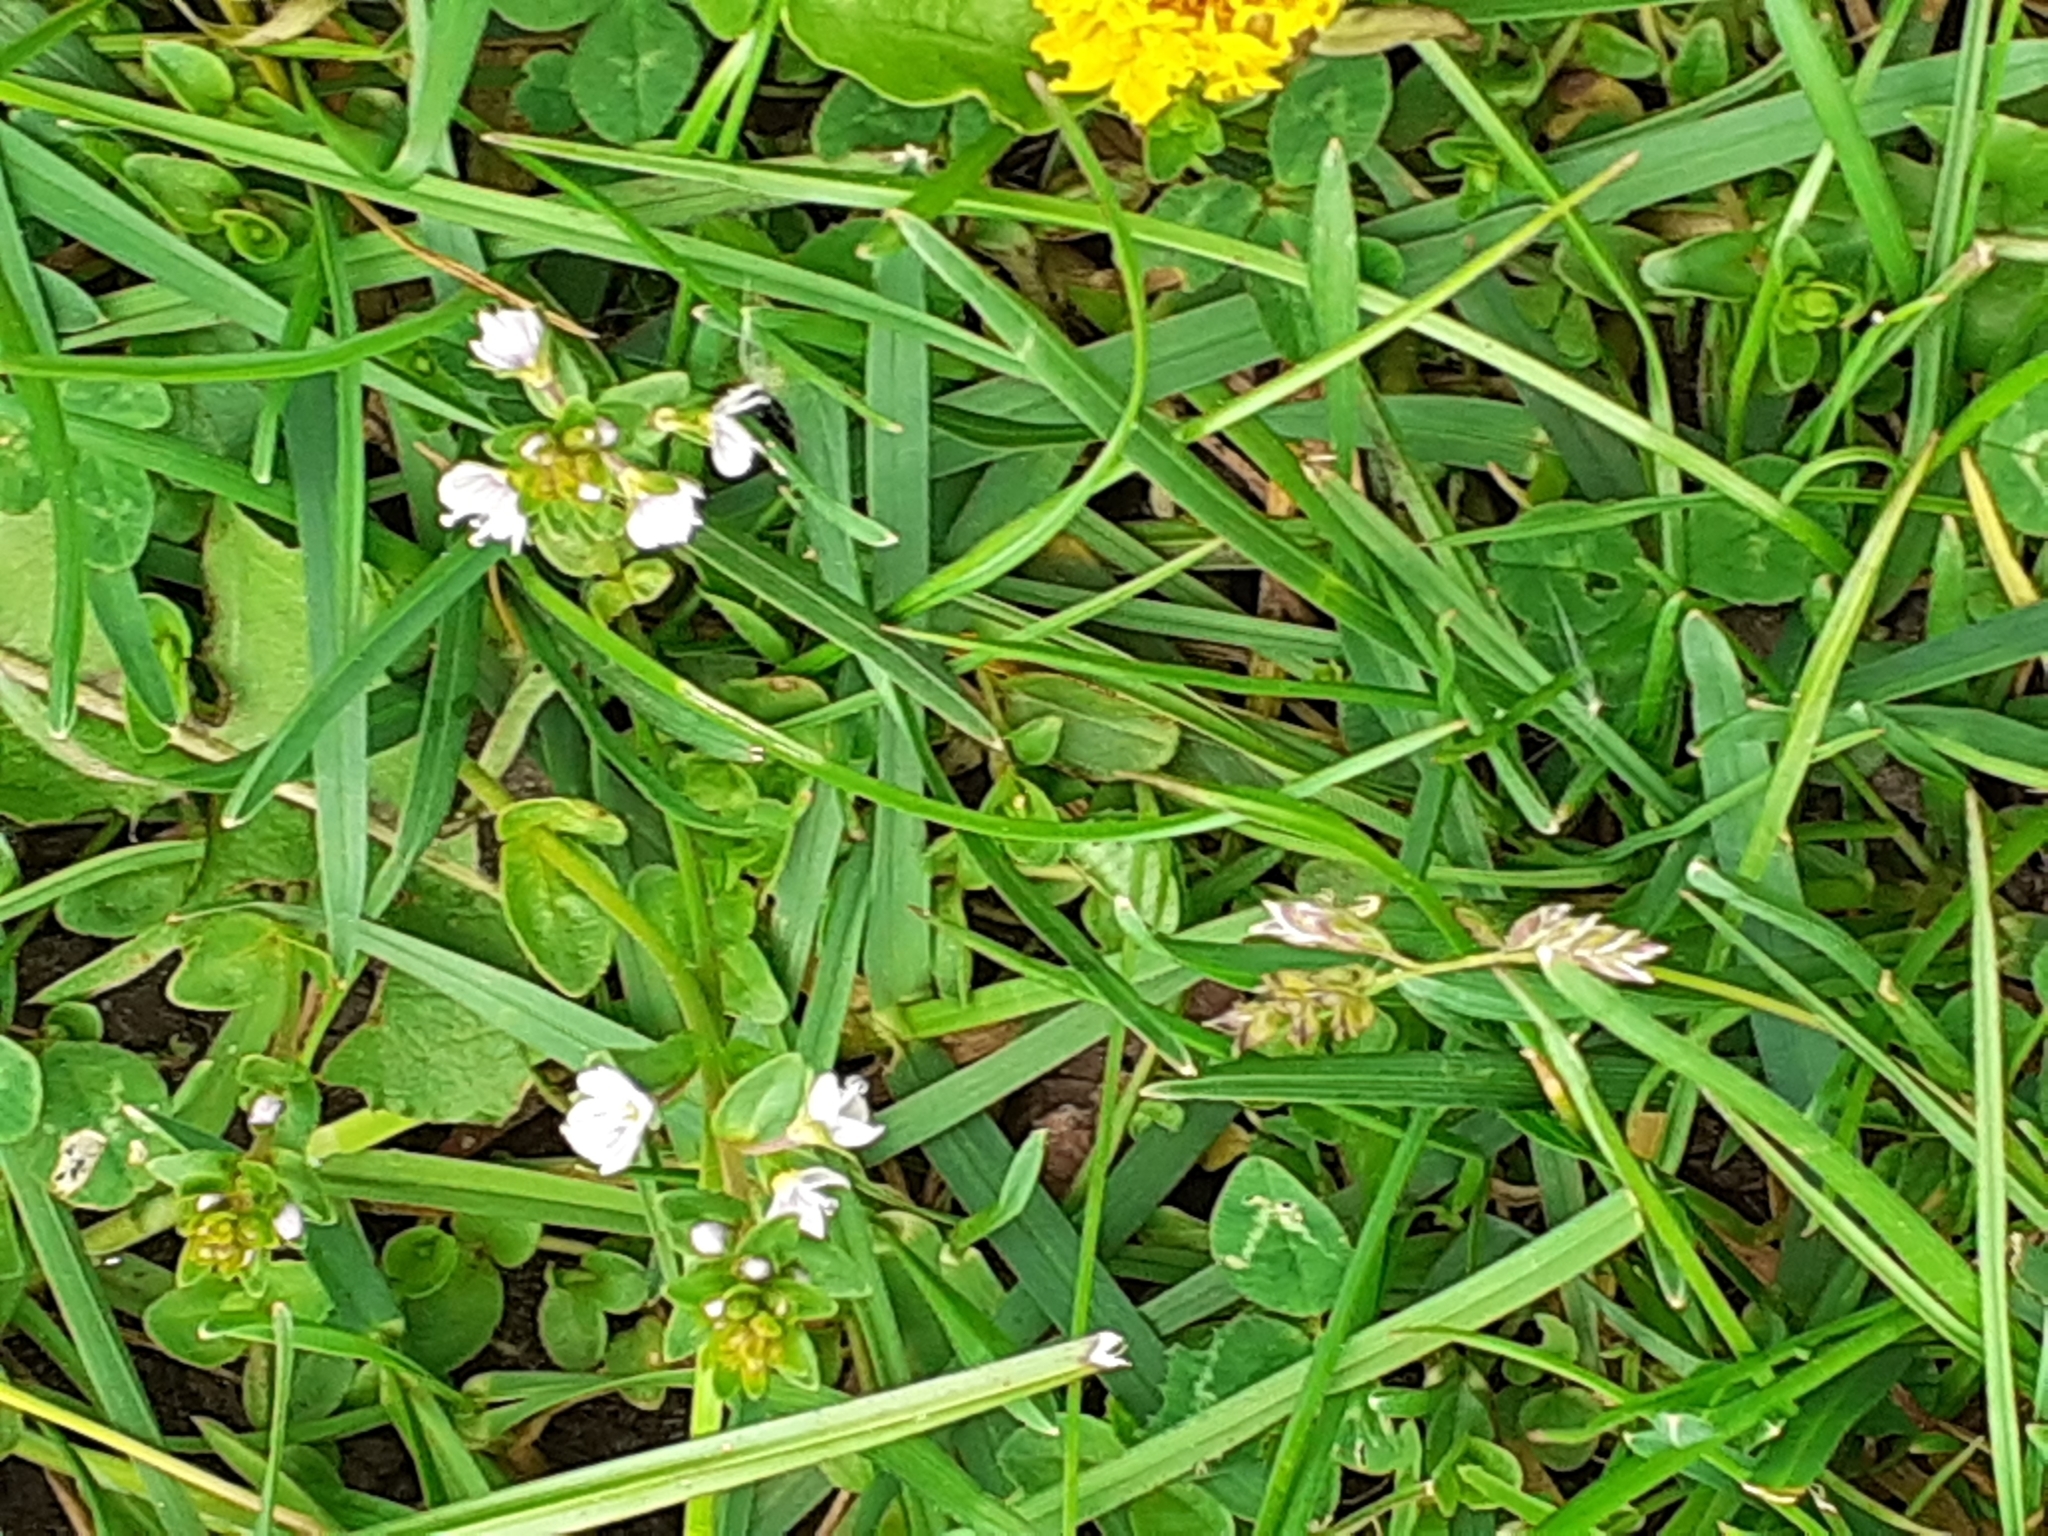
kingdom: Plantae
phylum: Tracheophyta
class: Magnoliopsida
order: Lamiales
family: Plantaginaceae
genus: Veronica
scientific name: Veronica serpyllifolia
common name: Thyme-leaved speedwell
